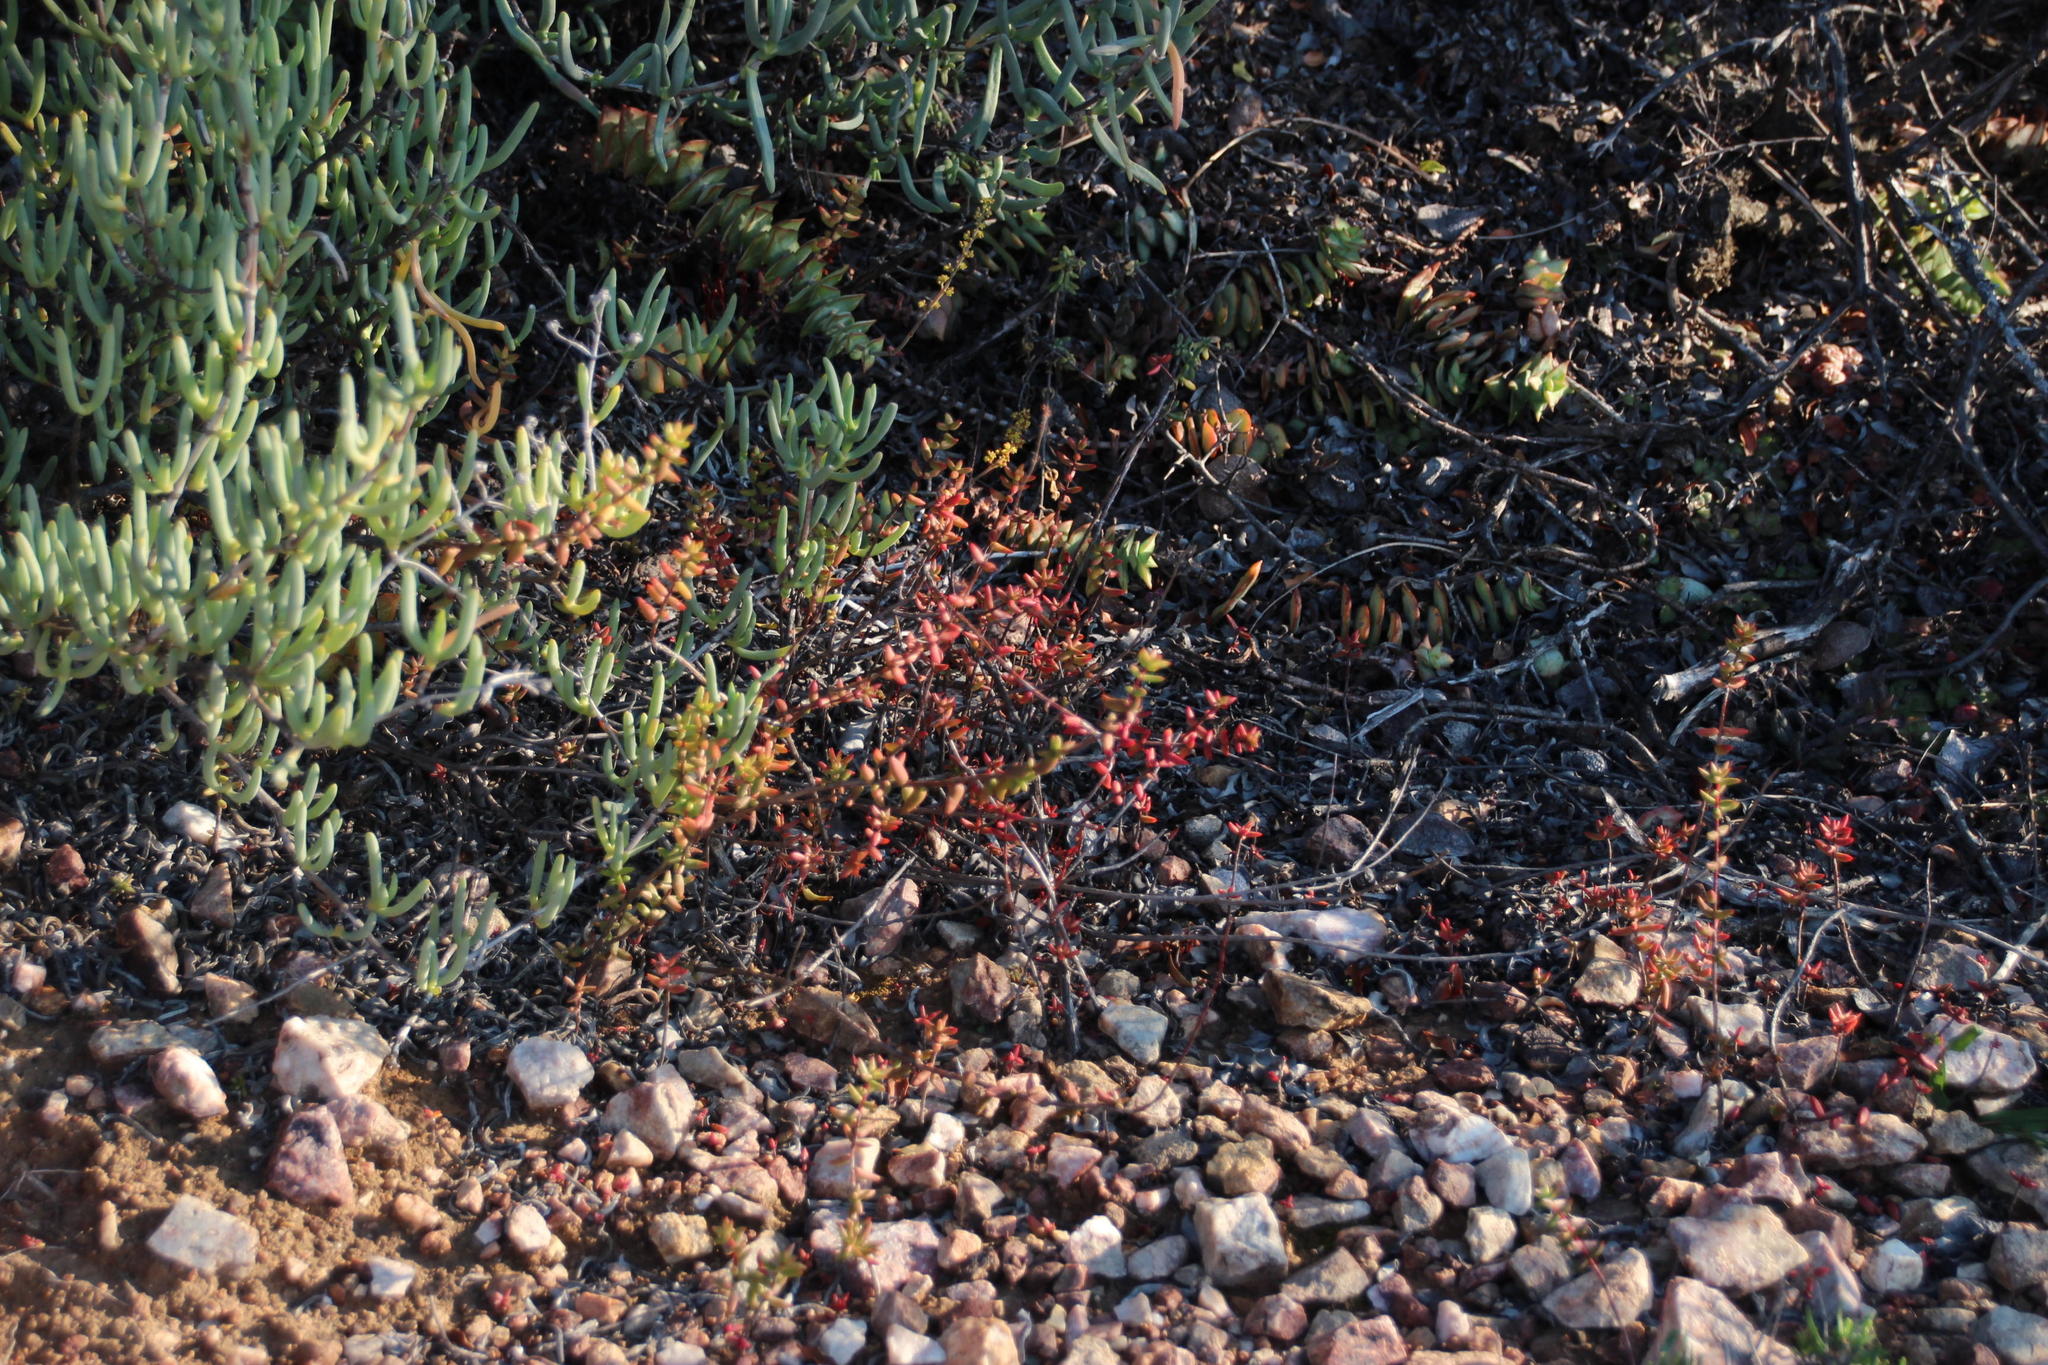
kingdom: Plantae
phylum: Tracheophyta
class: Magnoliopsida
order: Saxifragales
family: Crassulaceae
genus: Crassula
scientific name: Crassula perforata
